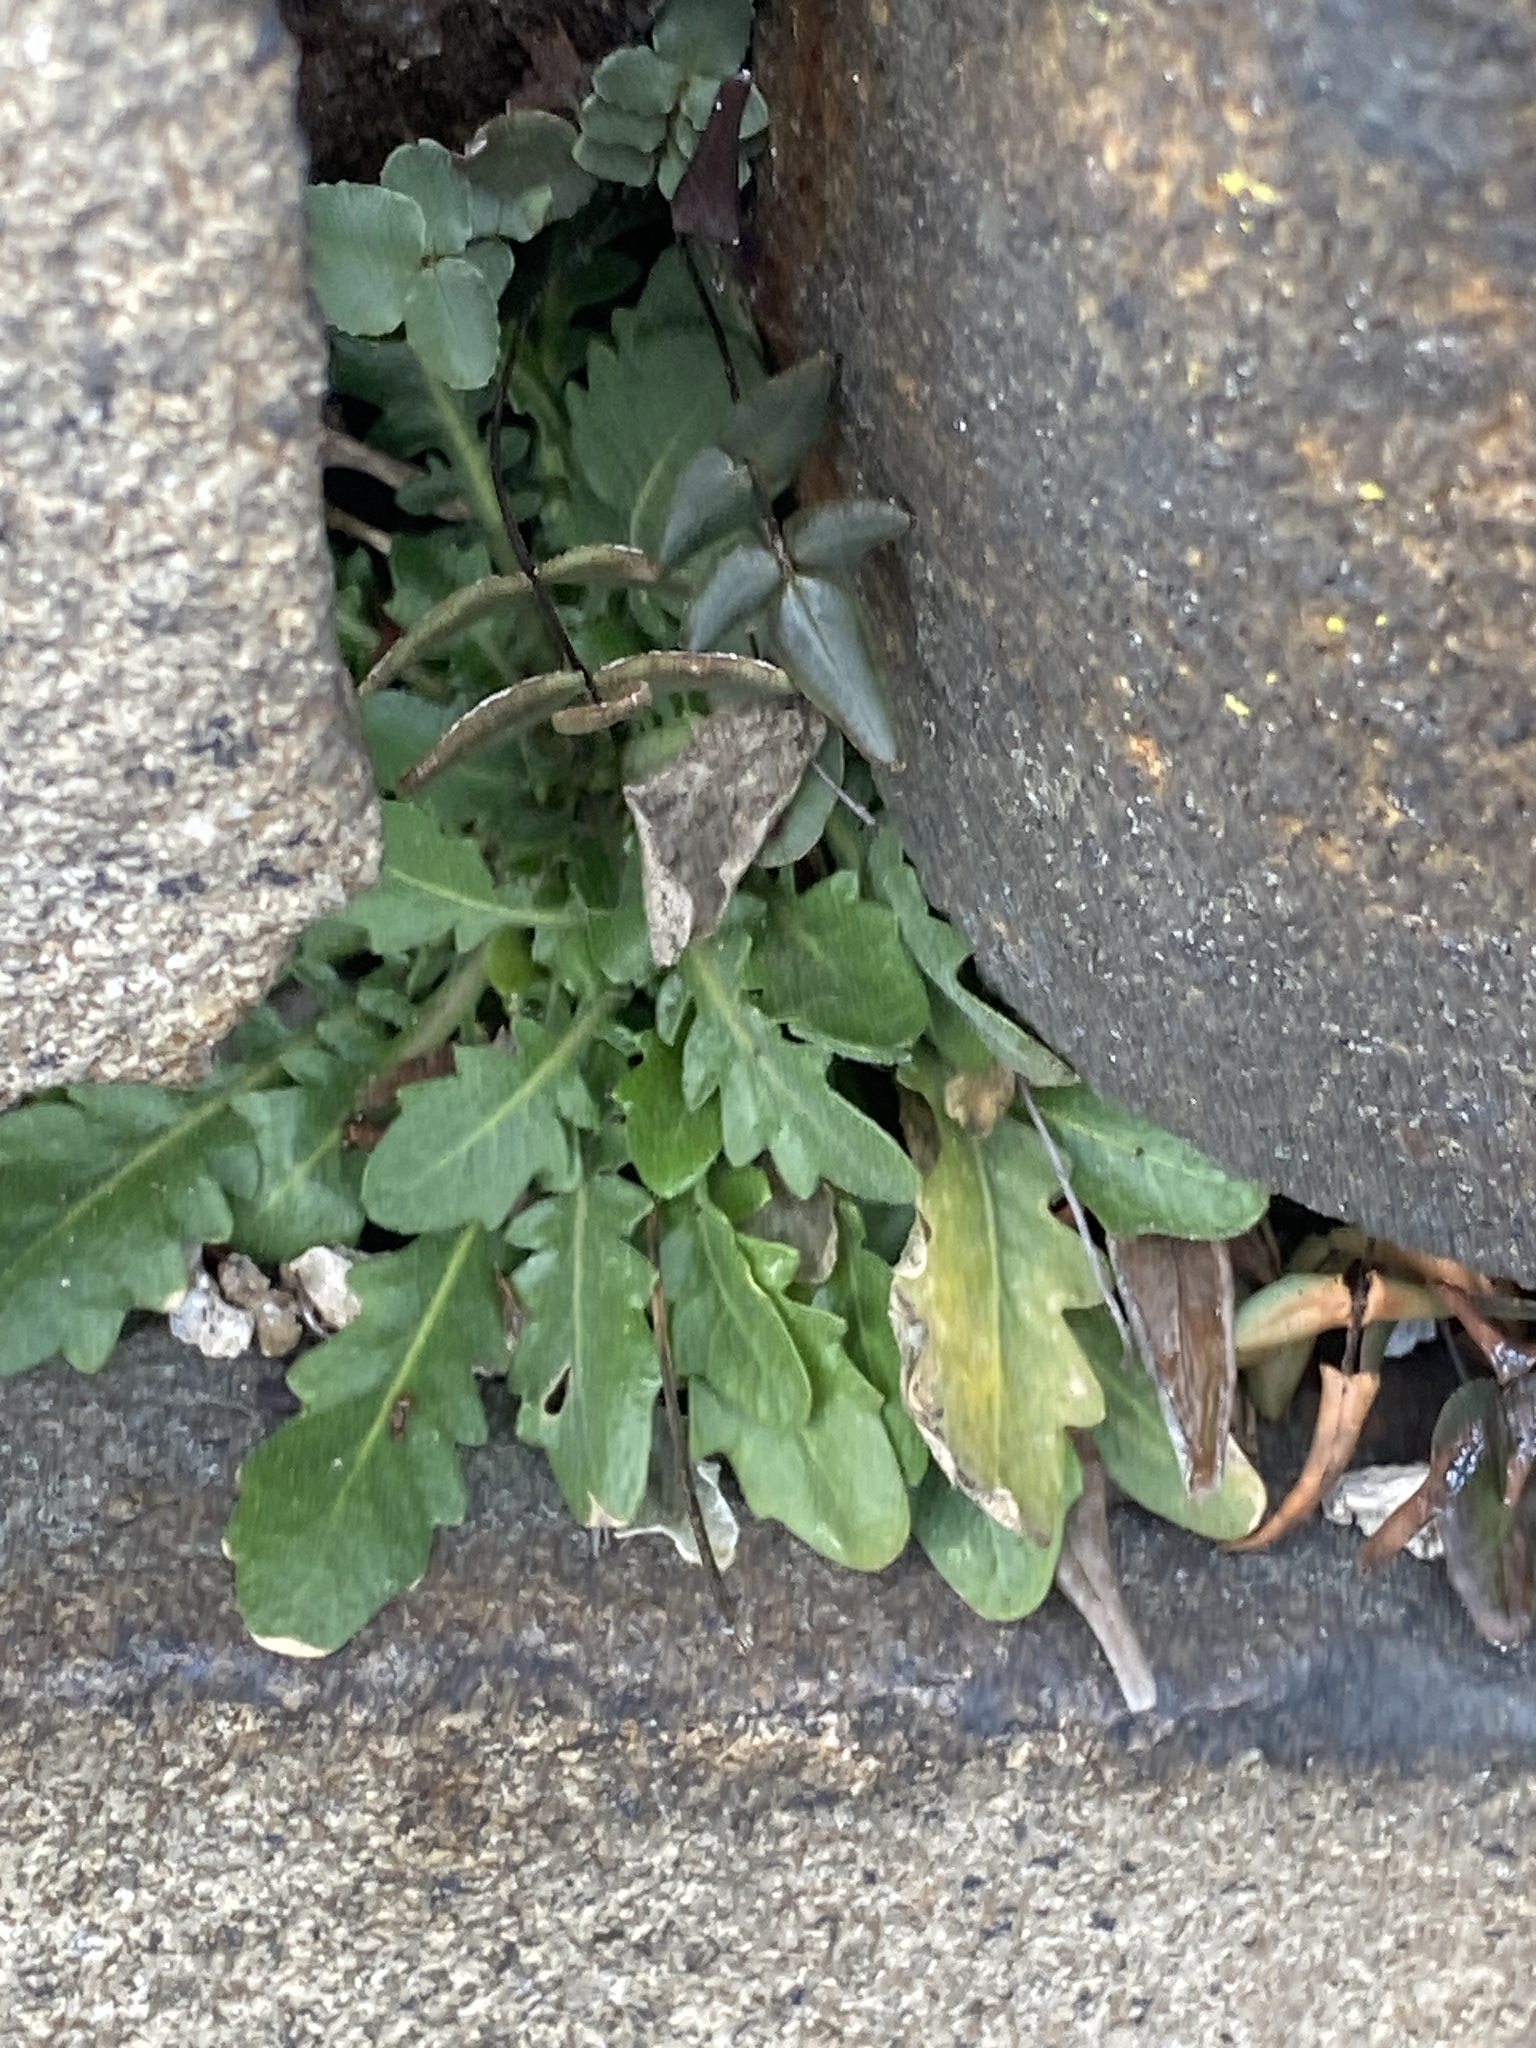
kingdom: Plantae
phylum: Tracheophyta
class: Magnoliopsida
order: Brassicales
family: Brassicaceae
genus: Arabidopsis
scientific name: Arabidopsis lyrata
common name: Lyrate rockcress
